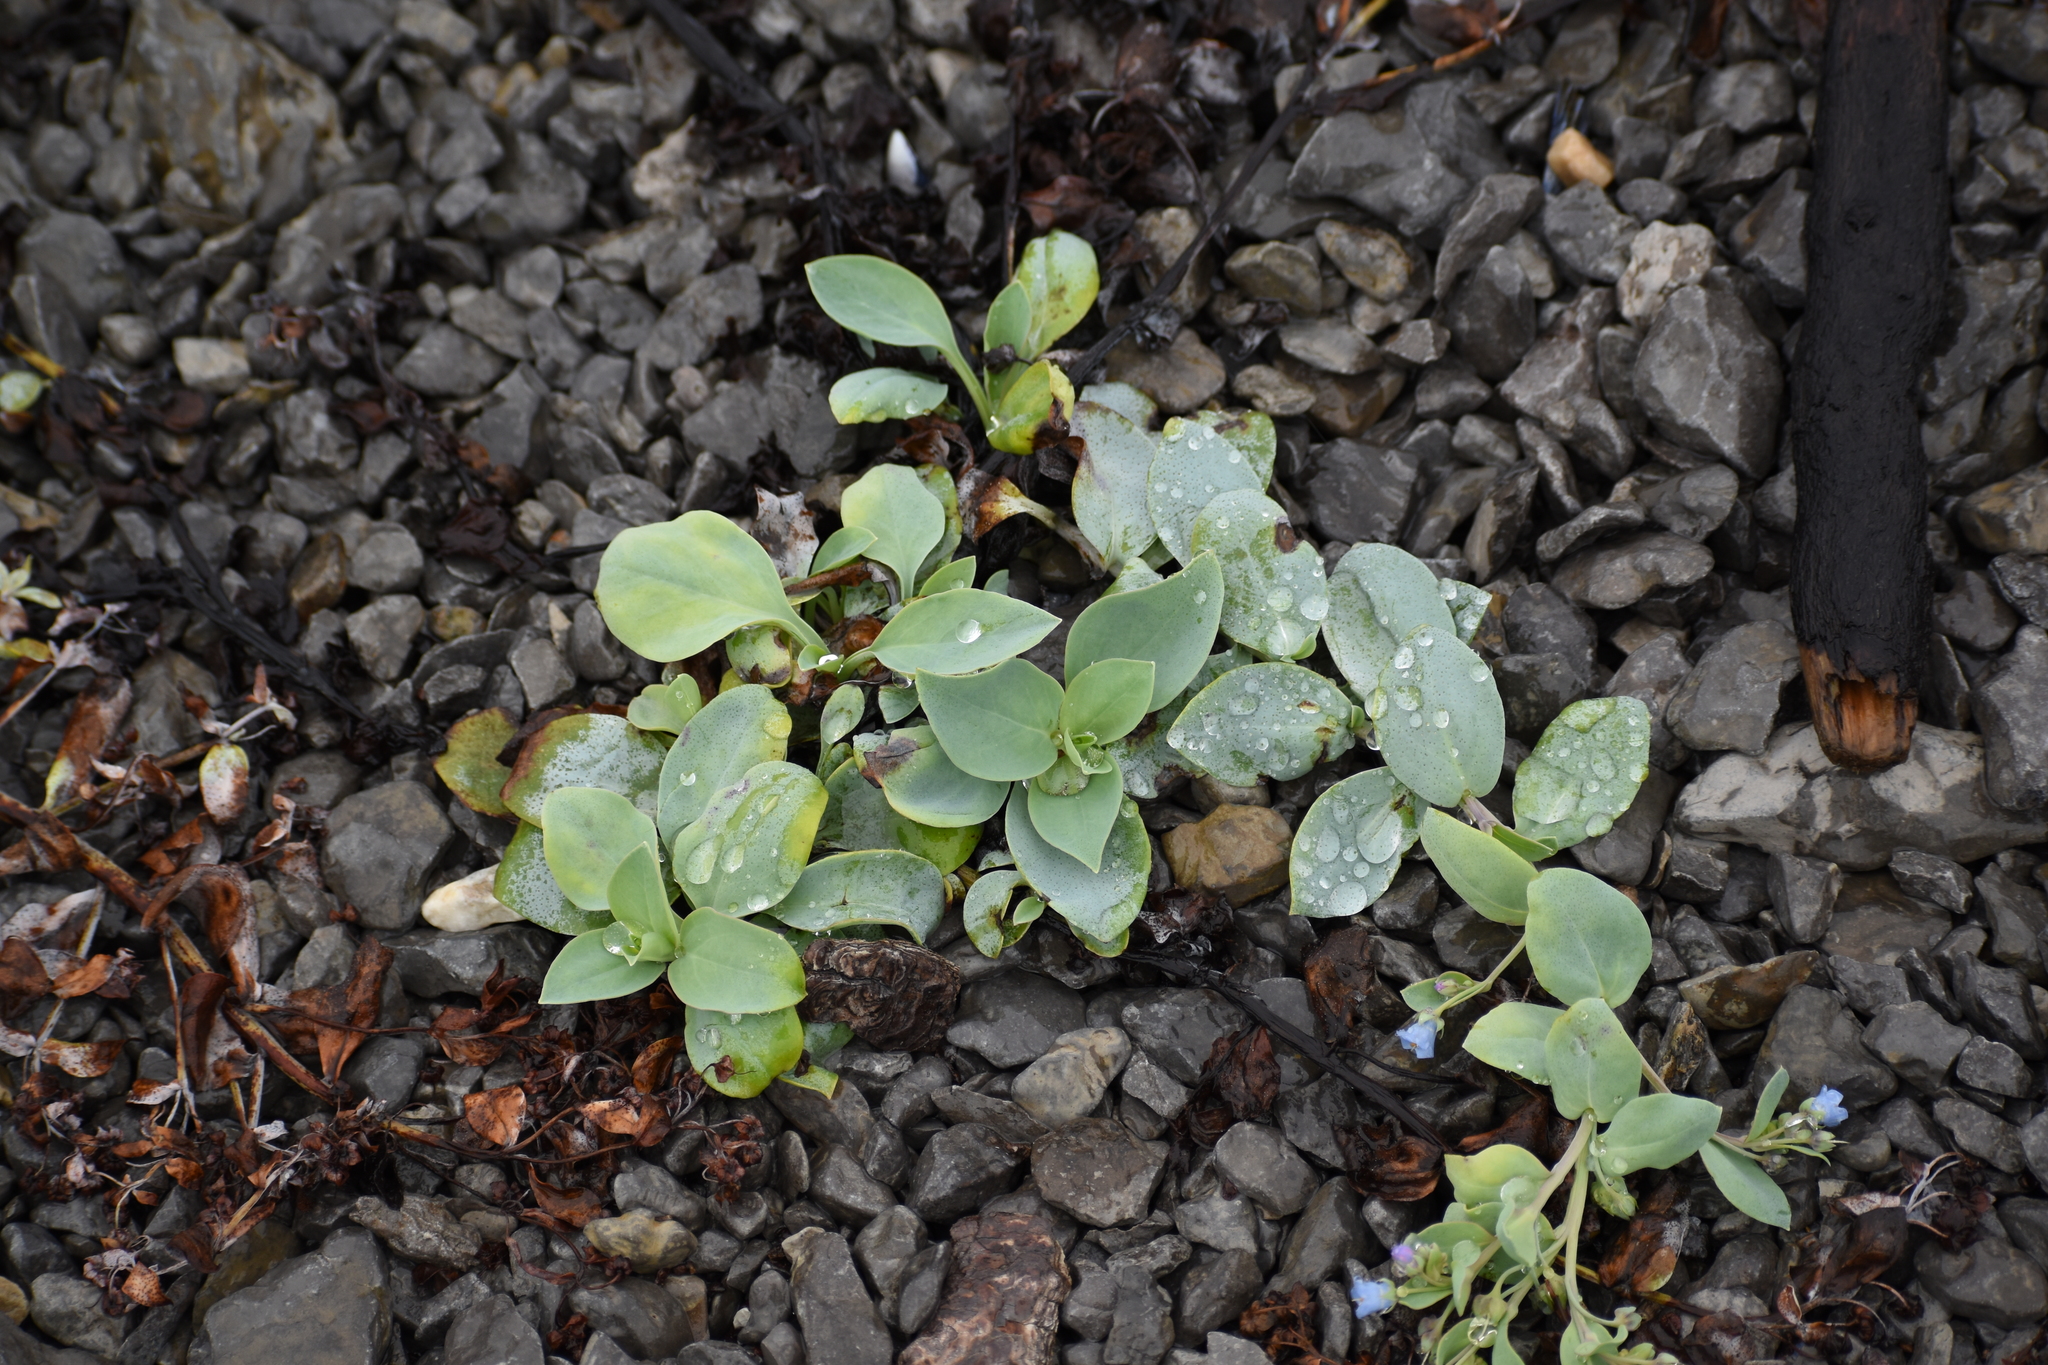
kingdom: Plantae
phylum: Tracheophyta
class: Magnoliopsida
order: Boraginales
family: Boraginaceae
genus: Mertensia
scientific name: Mertensia maritima
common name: Oysterplant
